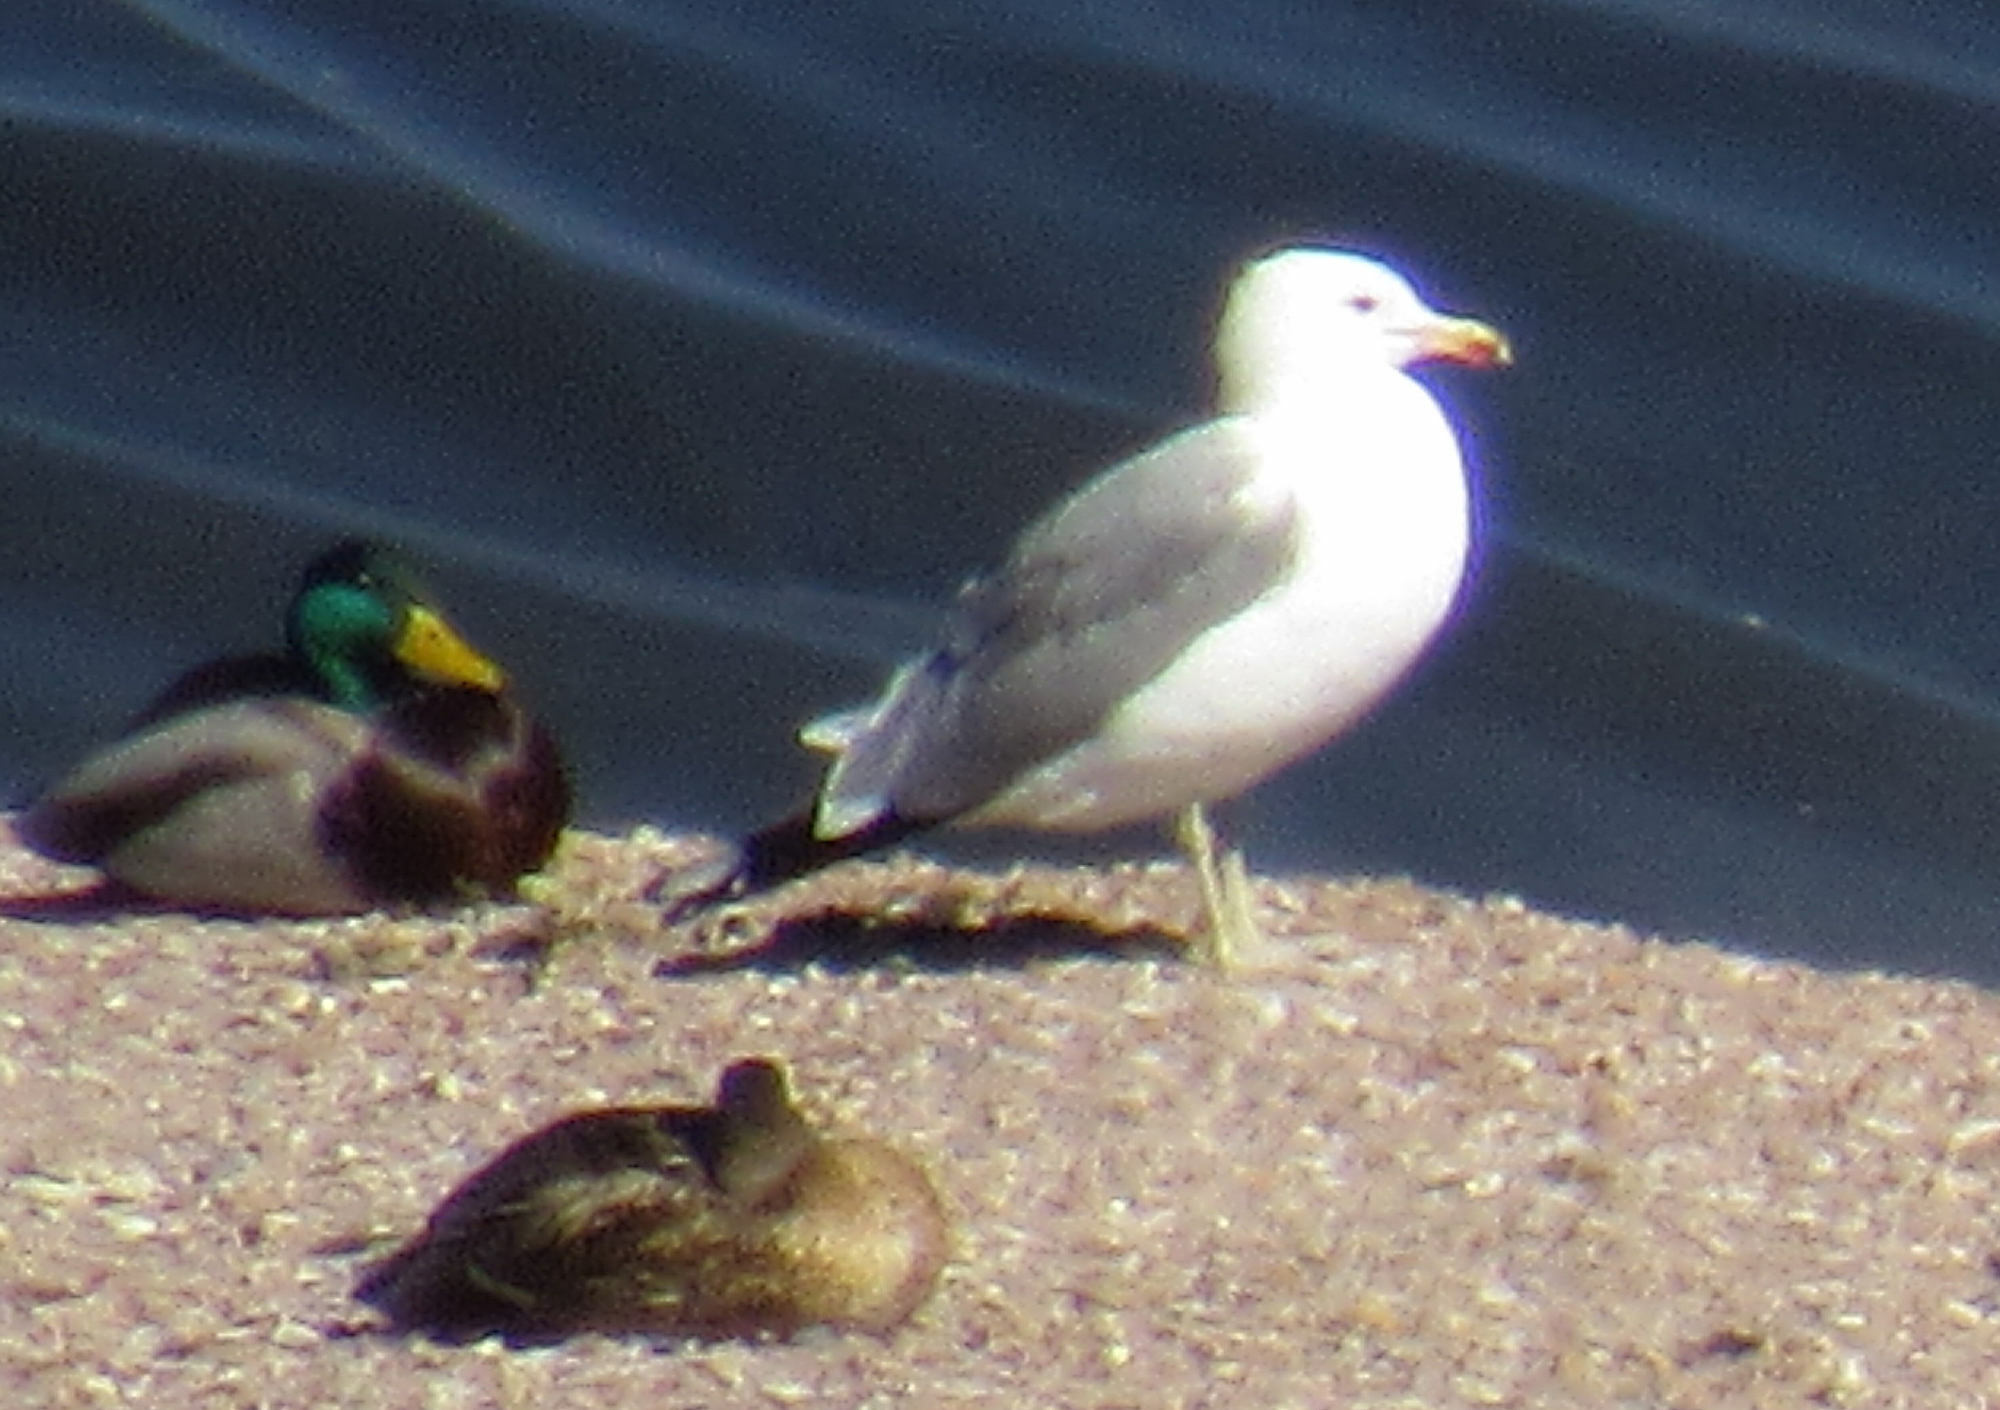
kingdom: Animalia
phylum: Chordata
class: Aves
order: Charadriiformes
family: Laridae
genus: Larus
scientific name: Larus californicus
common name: California gull
